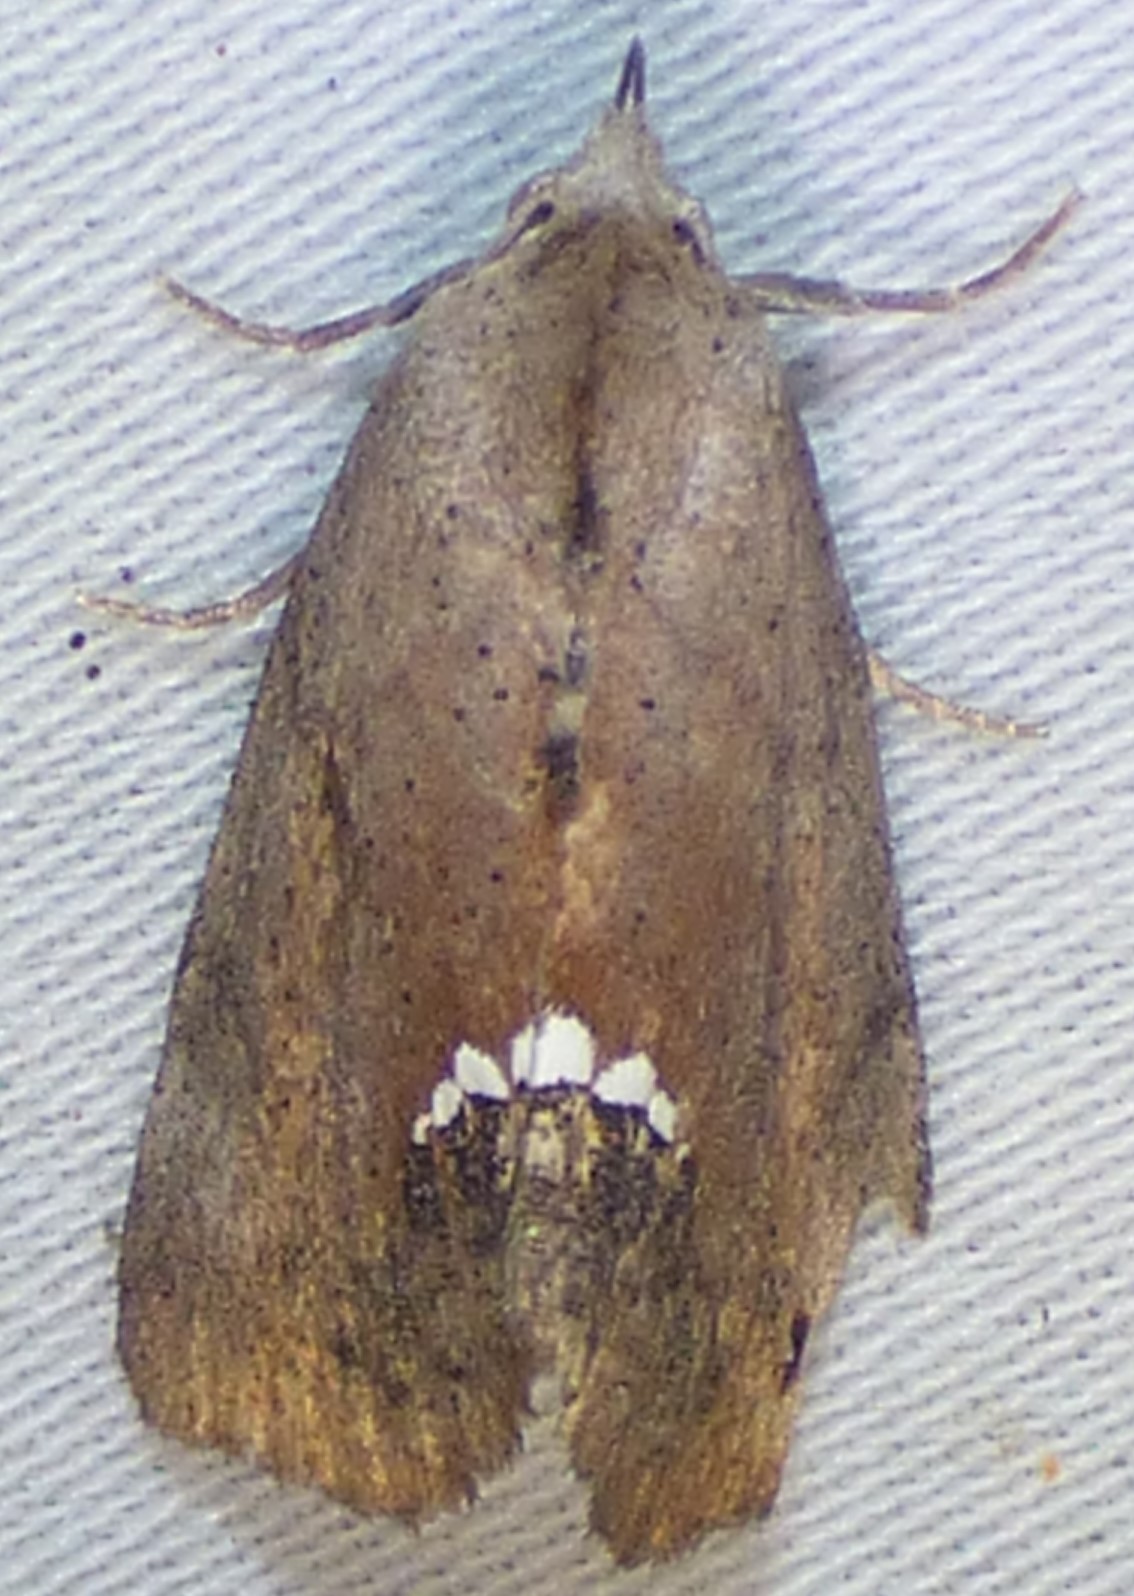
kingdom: Animalia
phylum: Arthropoda
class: Insecta
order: Lepidoptera
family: Erebidae
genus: Hypsoropha
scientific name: Hypsoropha hormos
